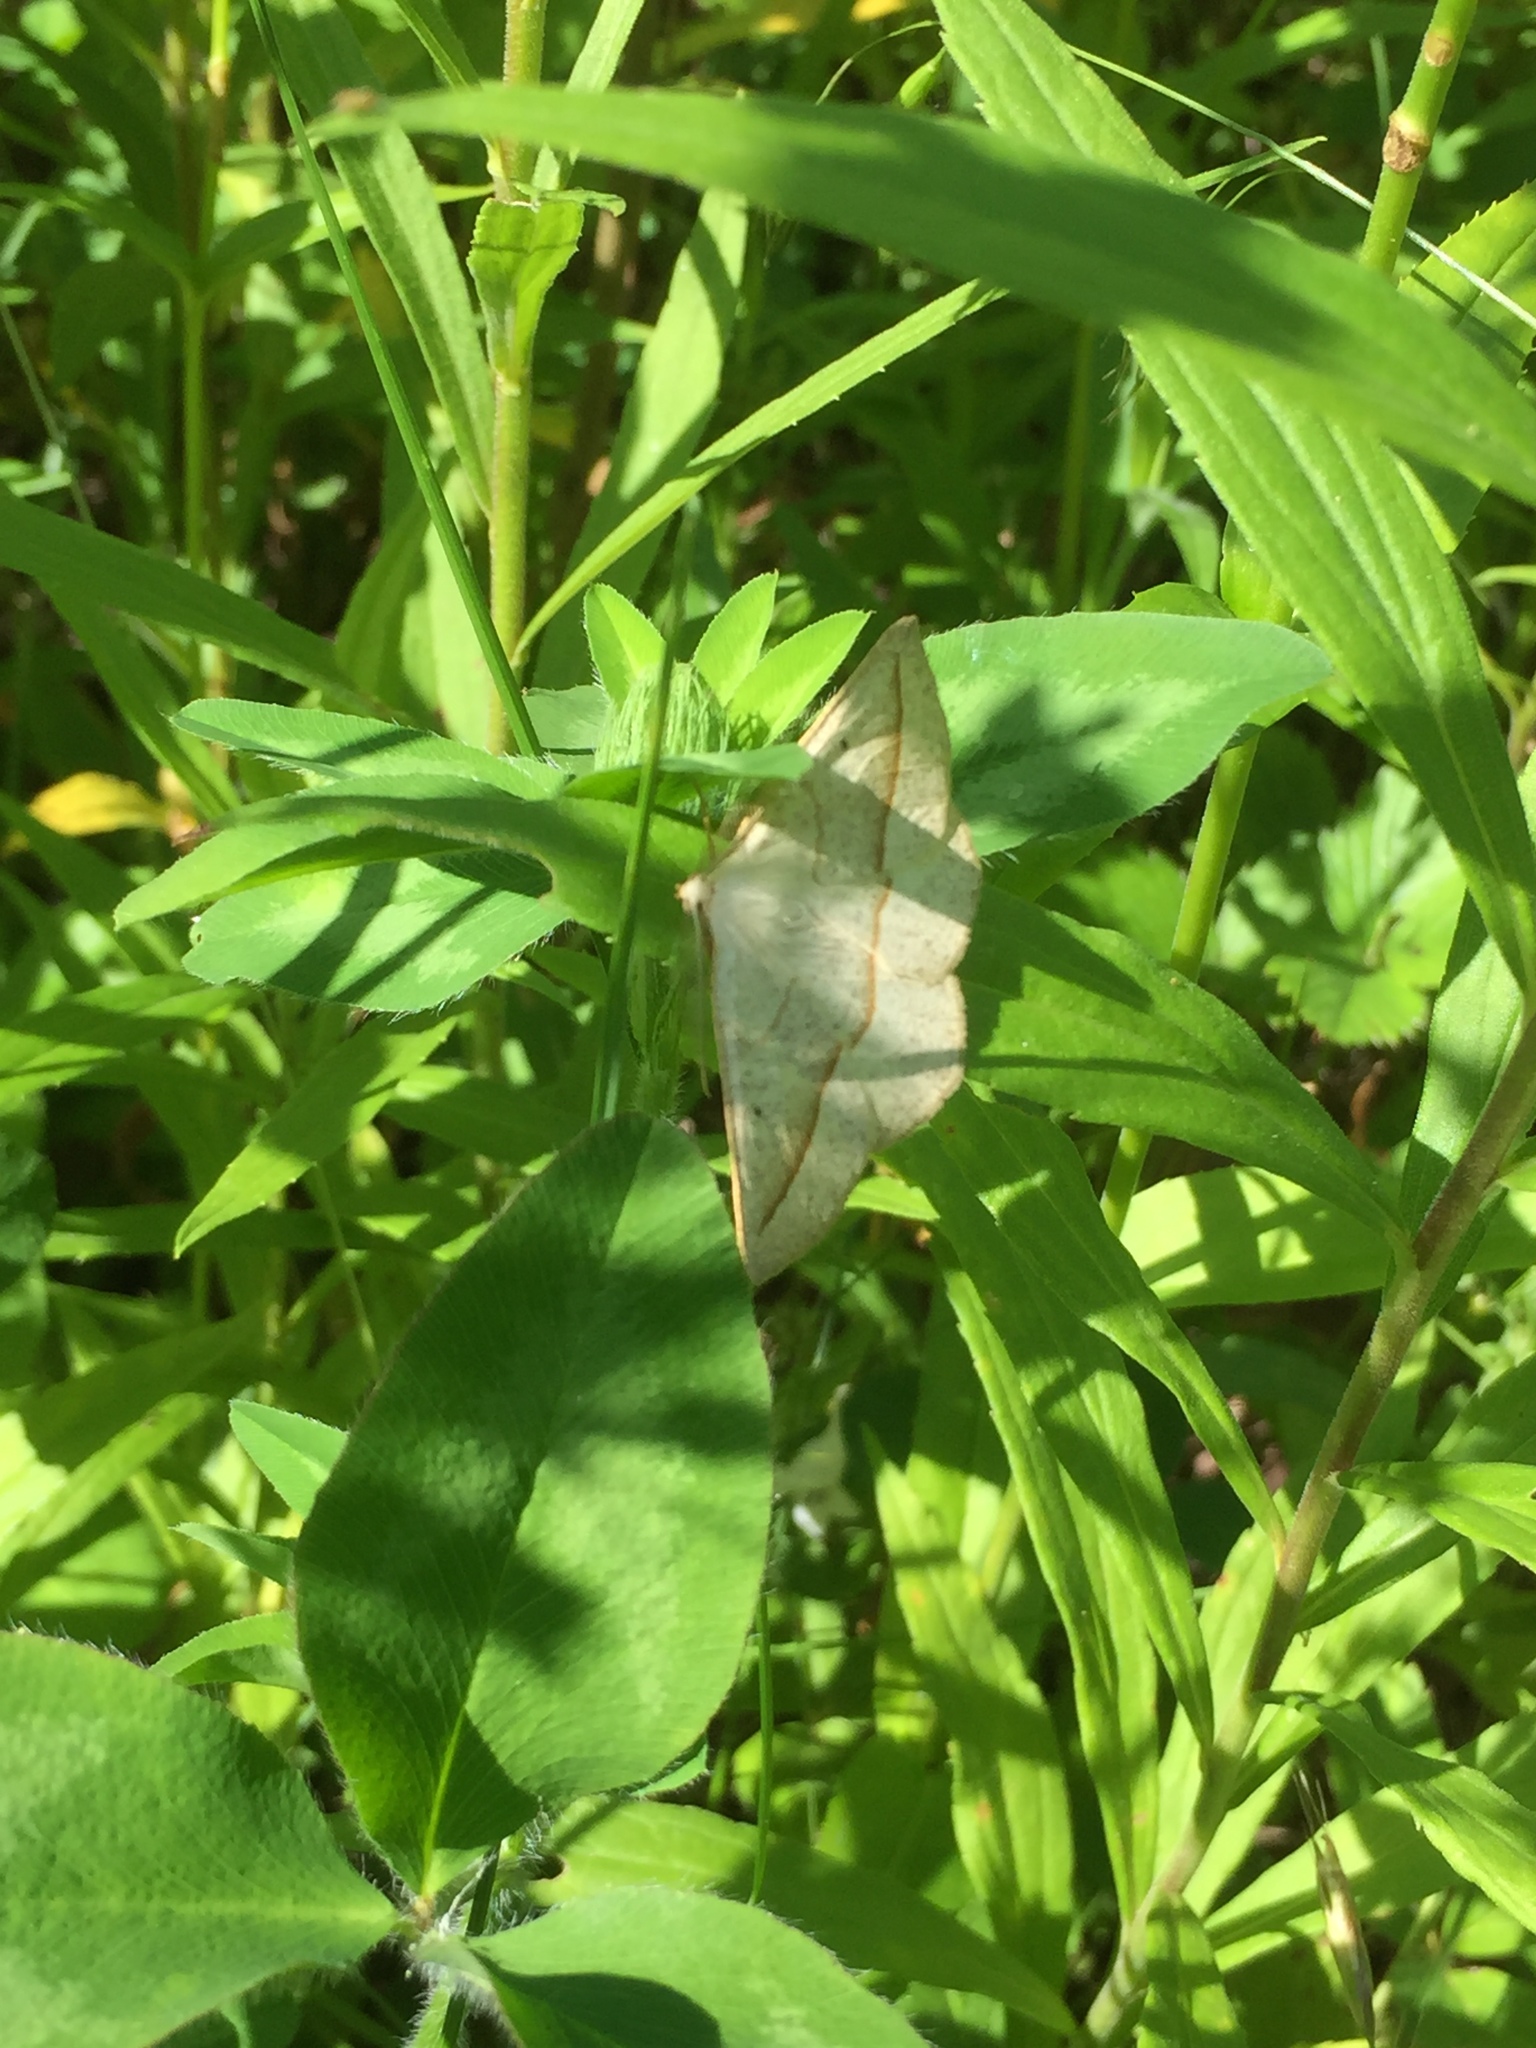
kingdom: Animalia
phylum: Arthropoda
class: Insecta
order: Lepidoptera
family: Geometridae
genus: Eusarca
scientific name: Eusarca confusaria
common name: Confused eusarca
